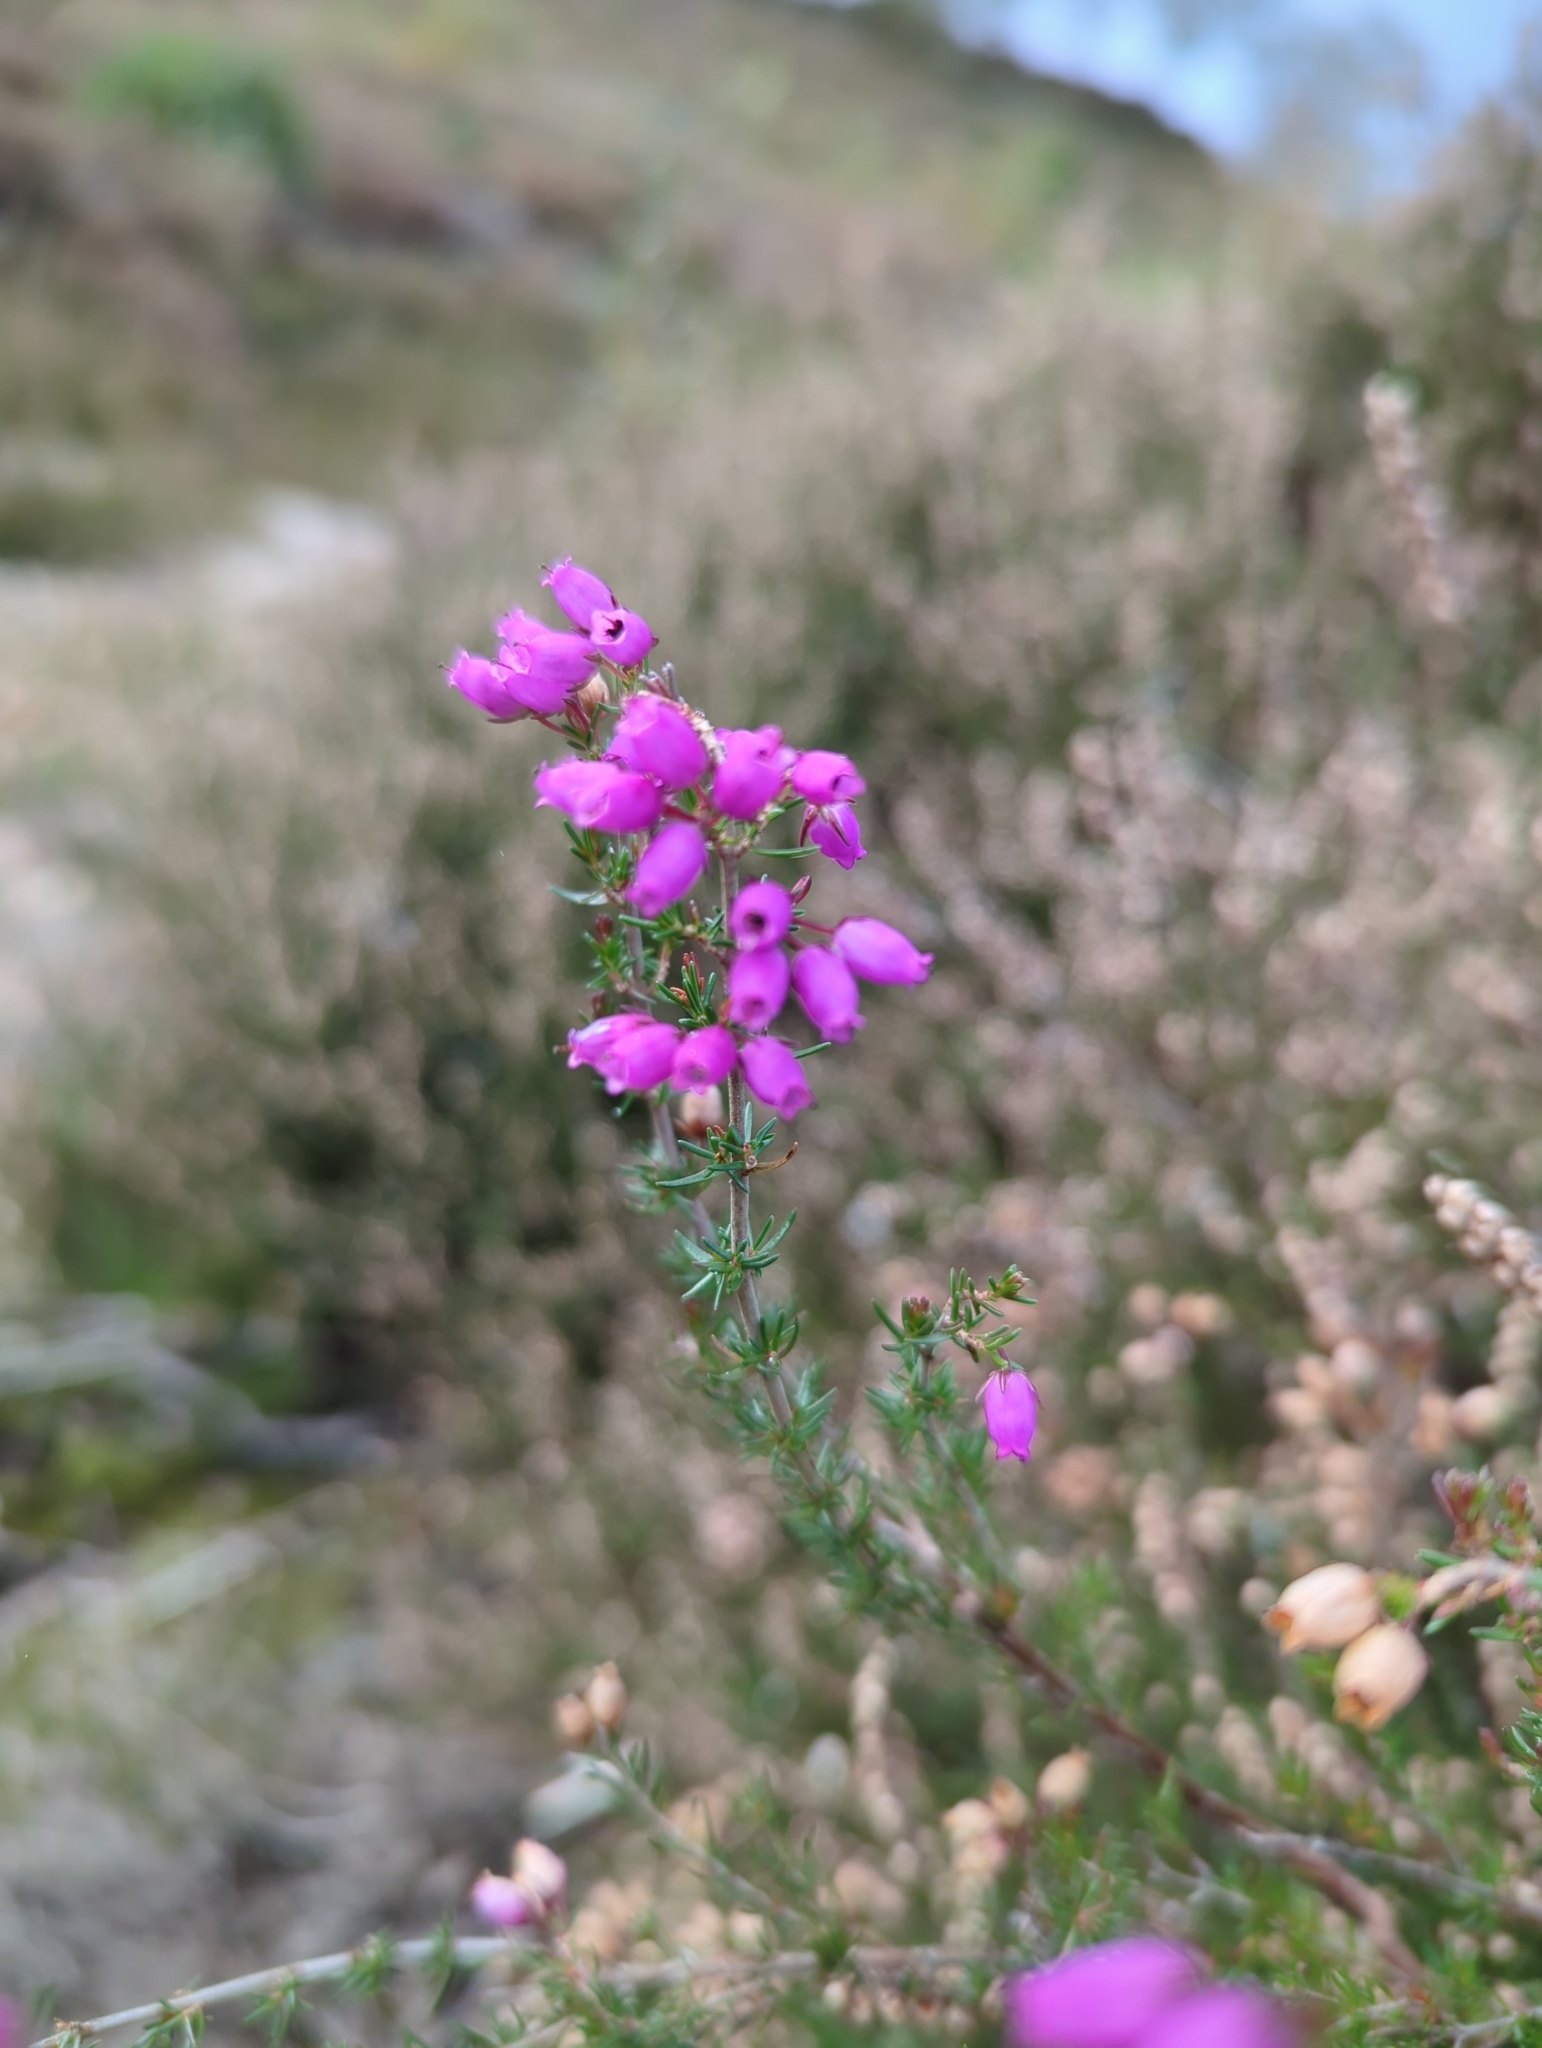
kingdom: Plantae
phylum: Tracheophyta
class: Magnoliopsida
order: Ericales
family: Ericaceae
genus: Erica
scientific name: Erica cinerea
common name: Bell heather
